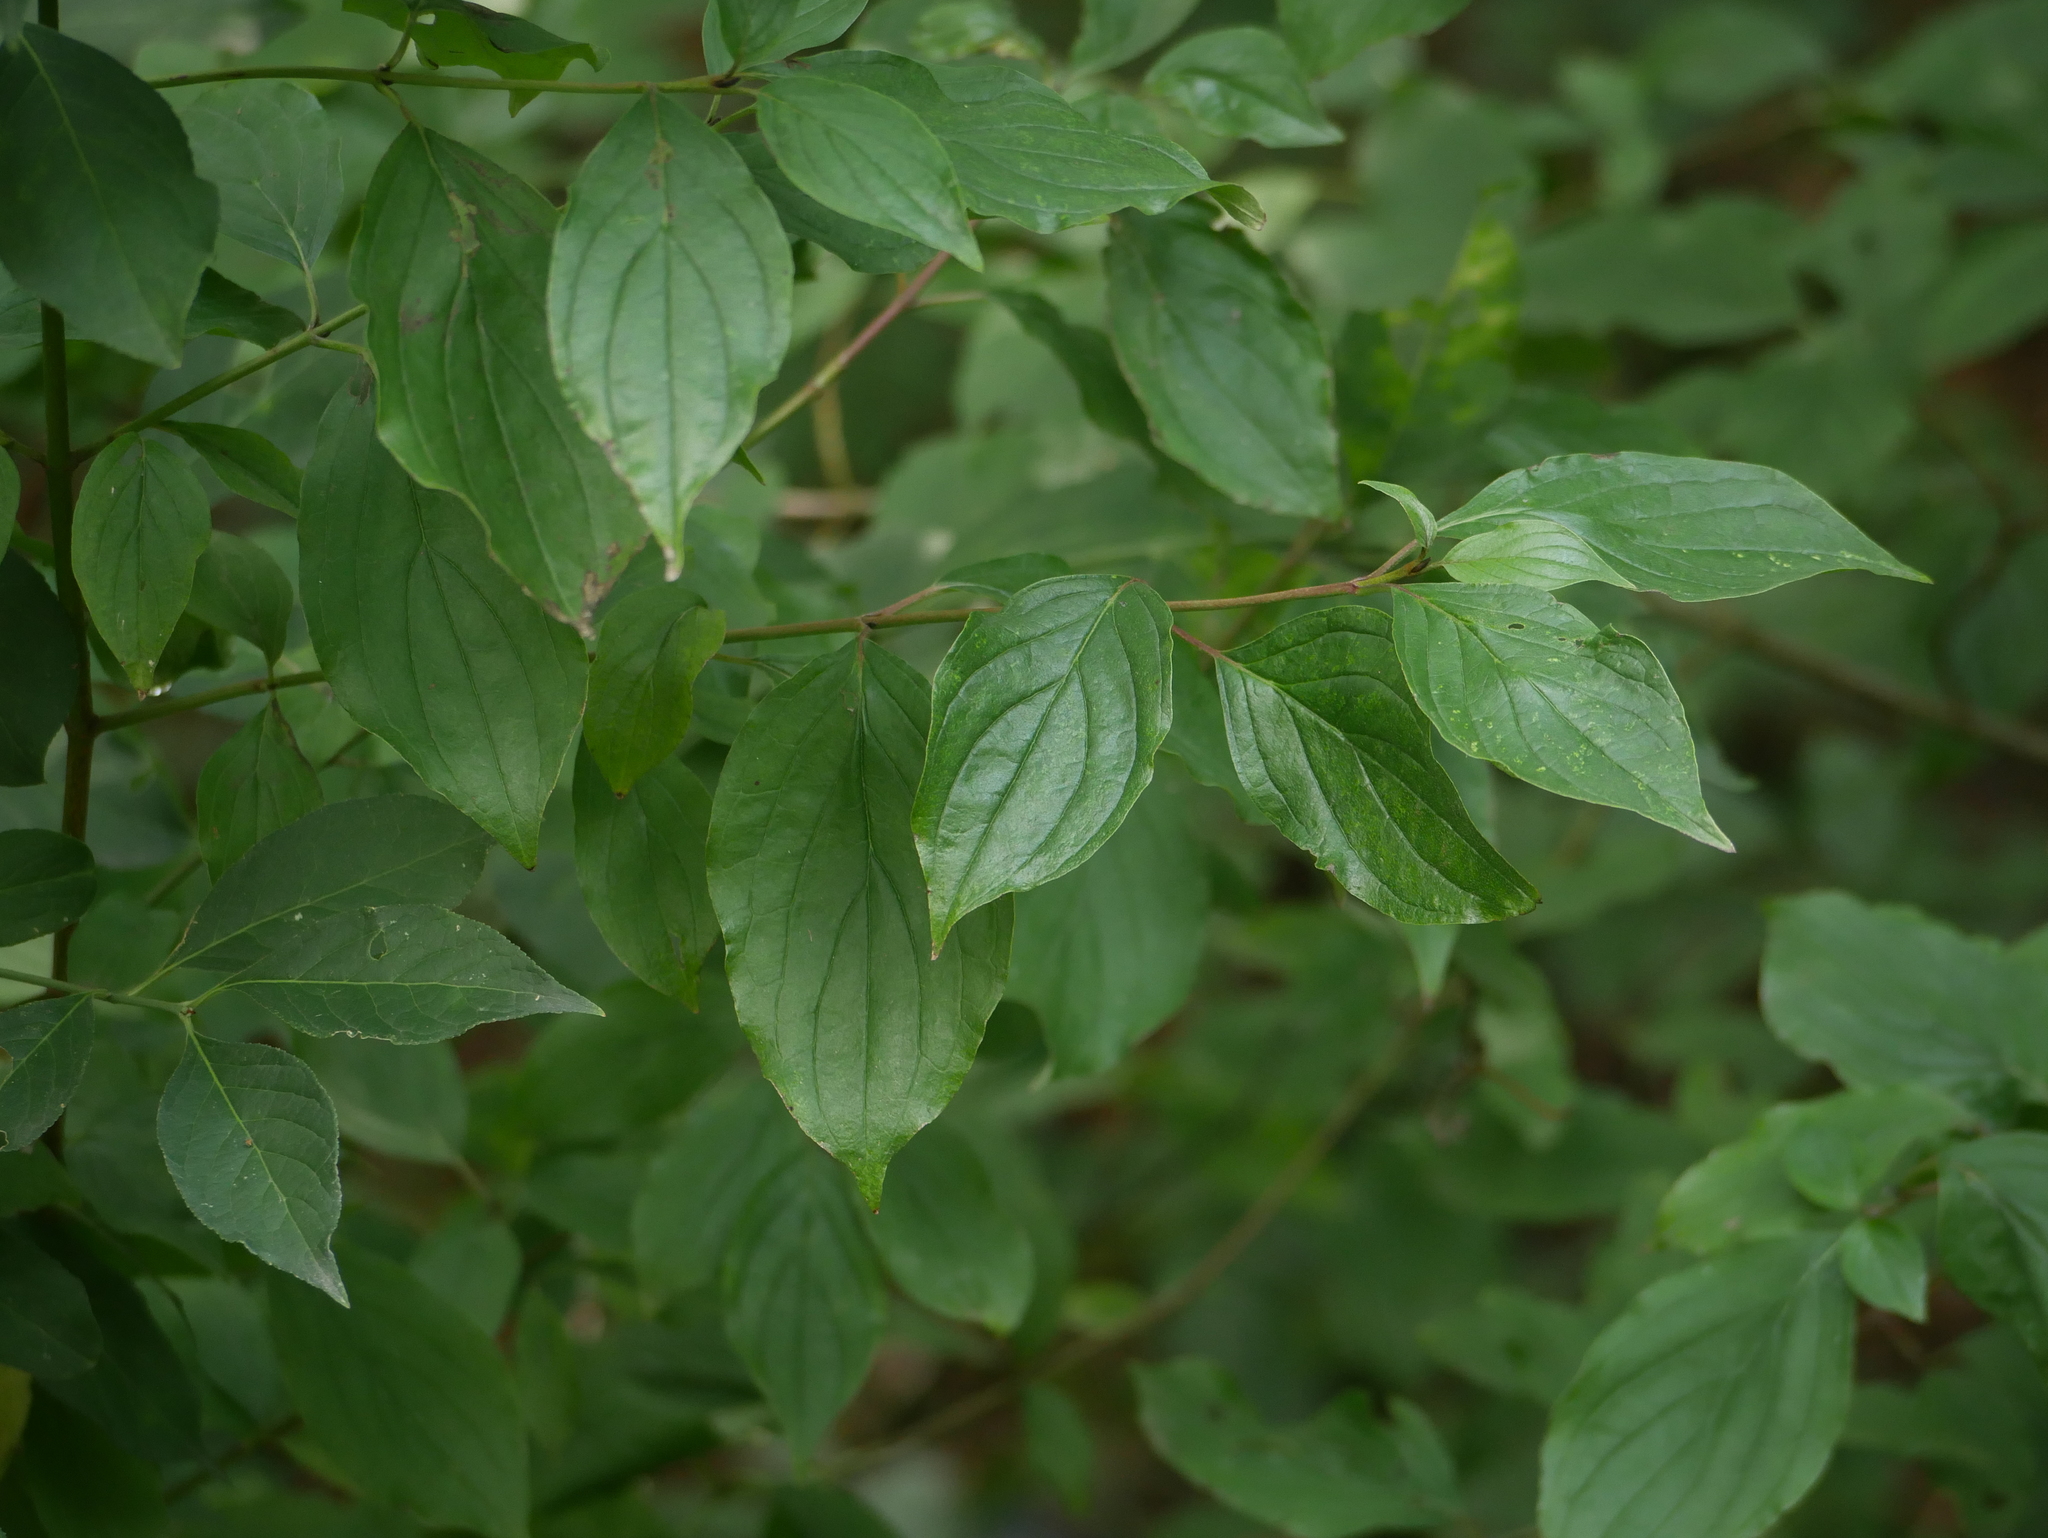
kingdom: Plantae
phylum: Tracheophyta
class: Magnoliopsida
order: Cornales
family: Cornaceae
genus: Cornus
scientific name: Cornus sanguinea
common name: Dogwood
